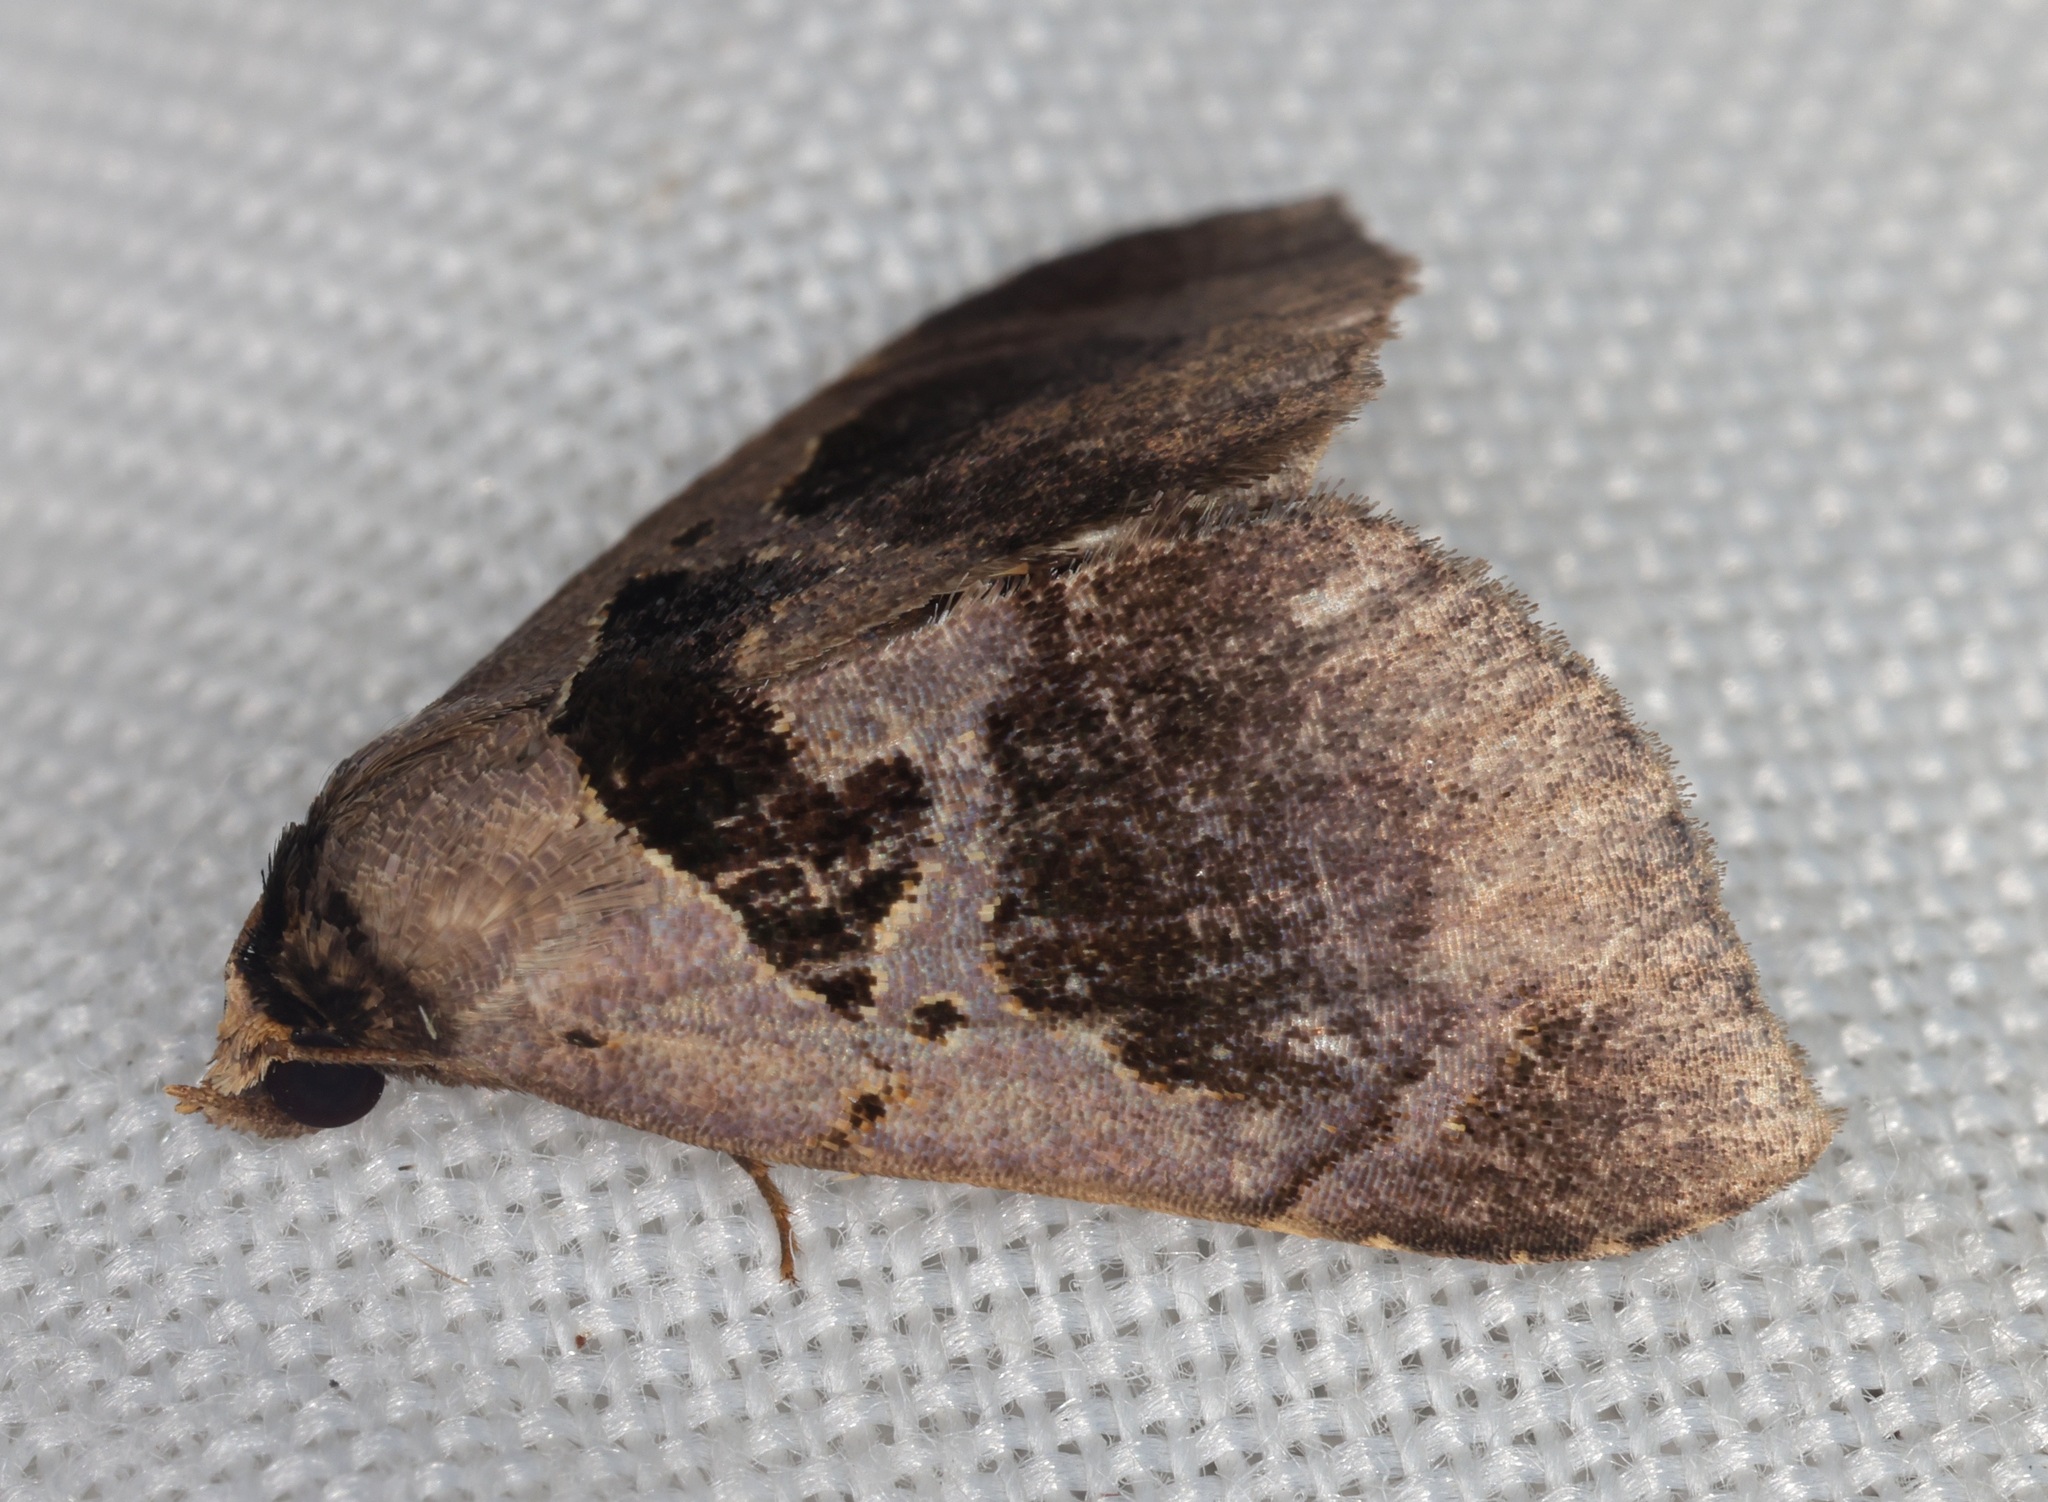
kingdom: Animalia
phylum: Arthropoda
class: Insecta
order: Lepidoptera
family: Erebidae
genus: Crithote
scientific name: Crithote prominens
